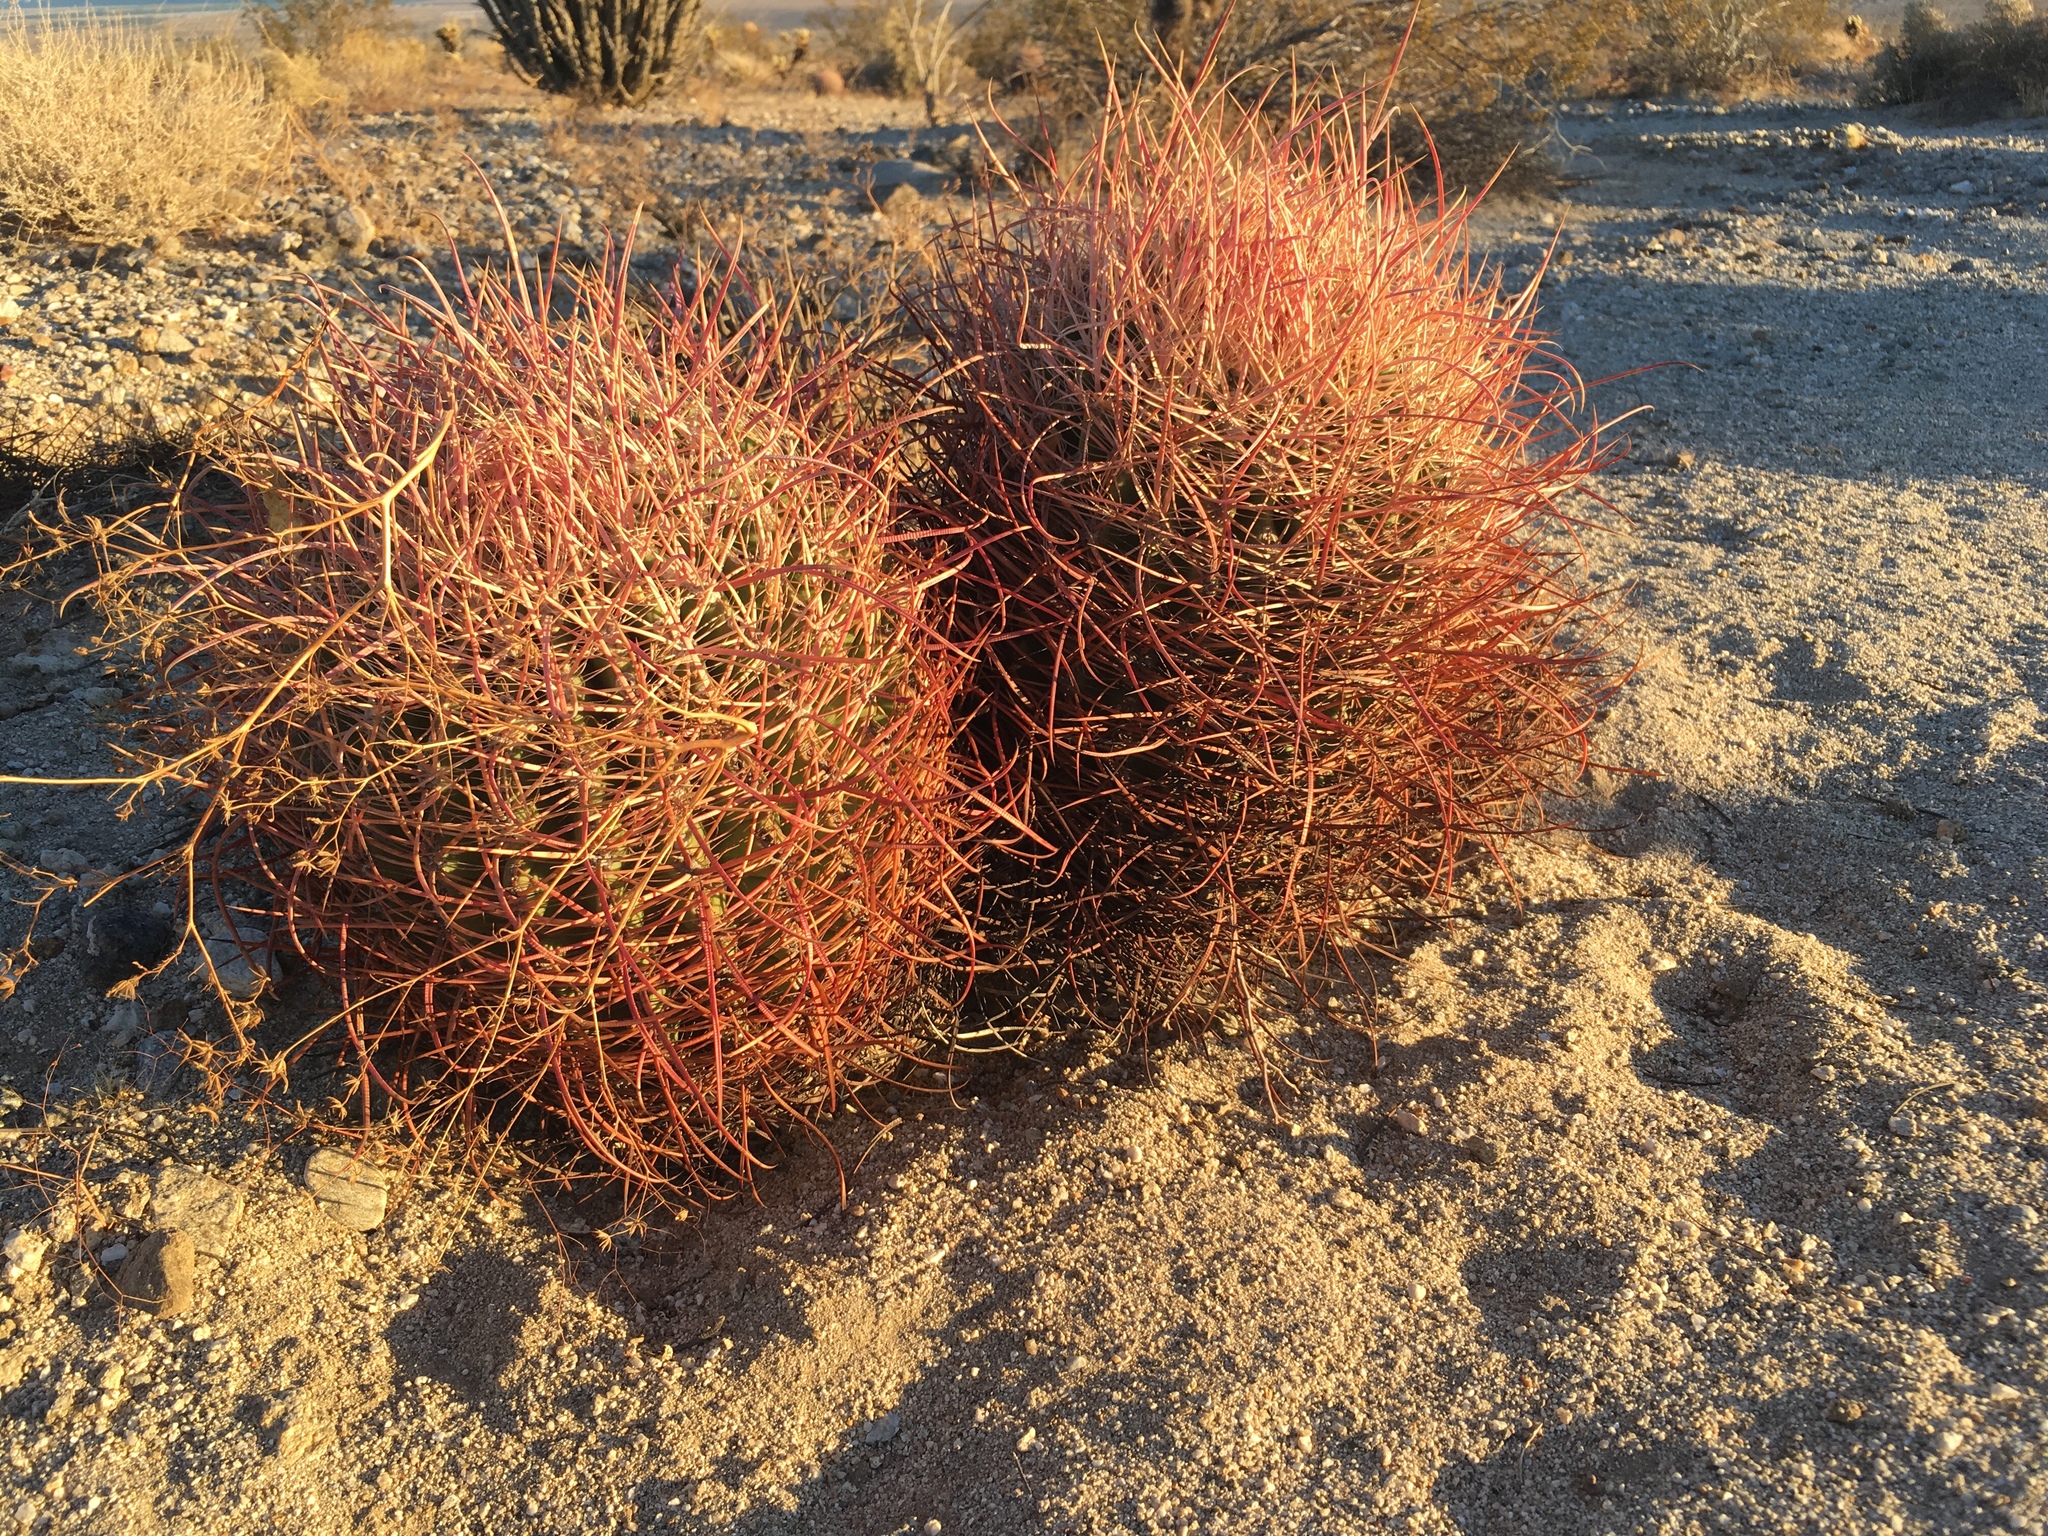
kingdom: Plantae
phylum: Tracheophyta
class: Magnoliopsida
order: Caryophyllales
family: Cactaceae
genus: Ferocactus
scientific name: Ferocactus cylindraceus
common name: California barrel cactus
